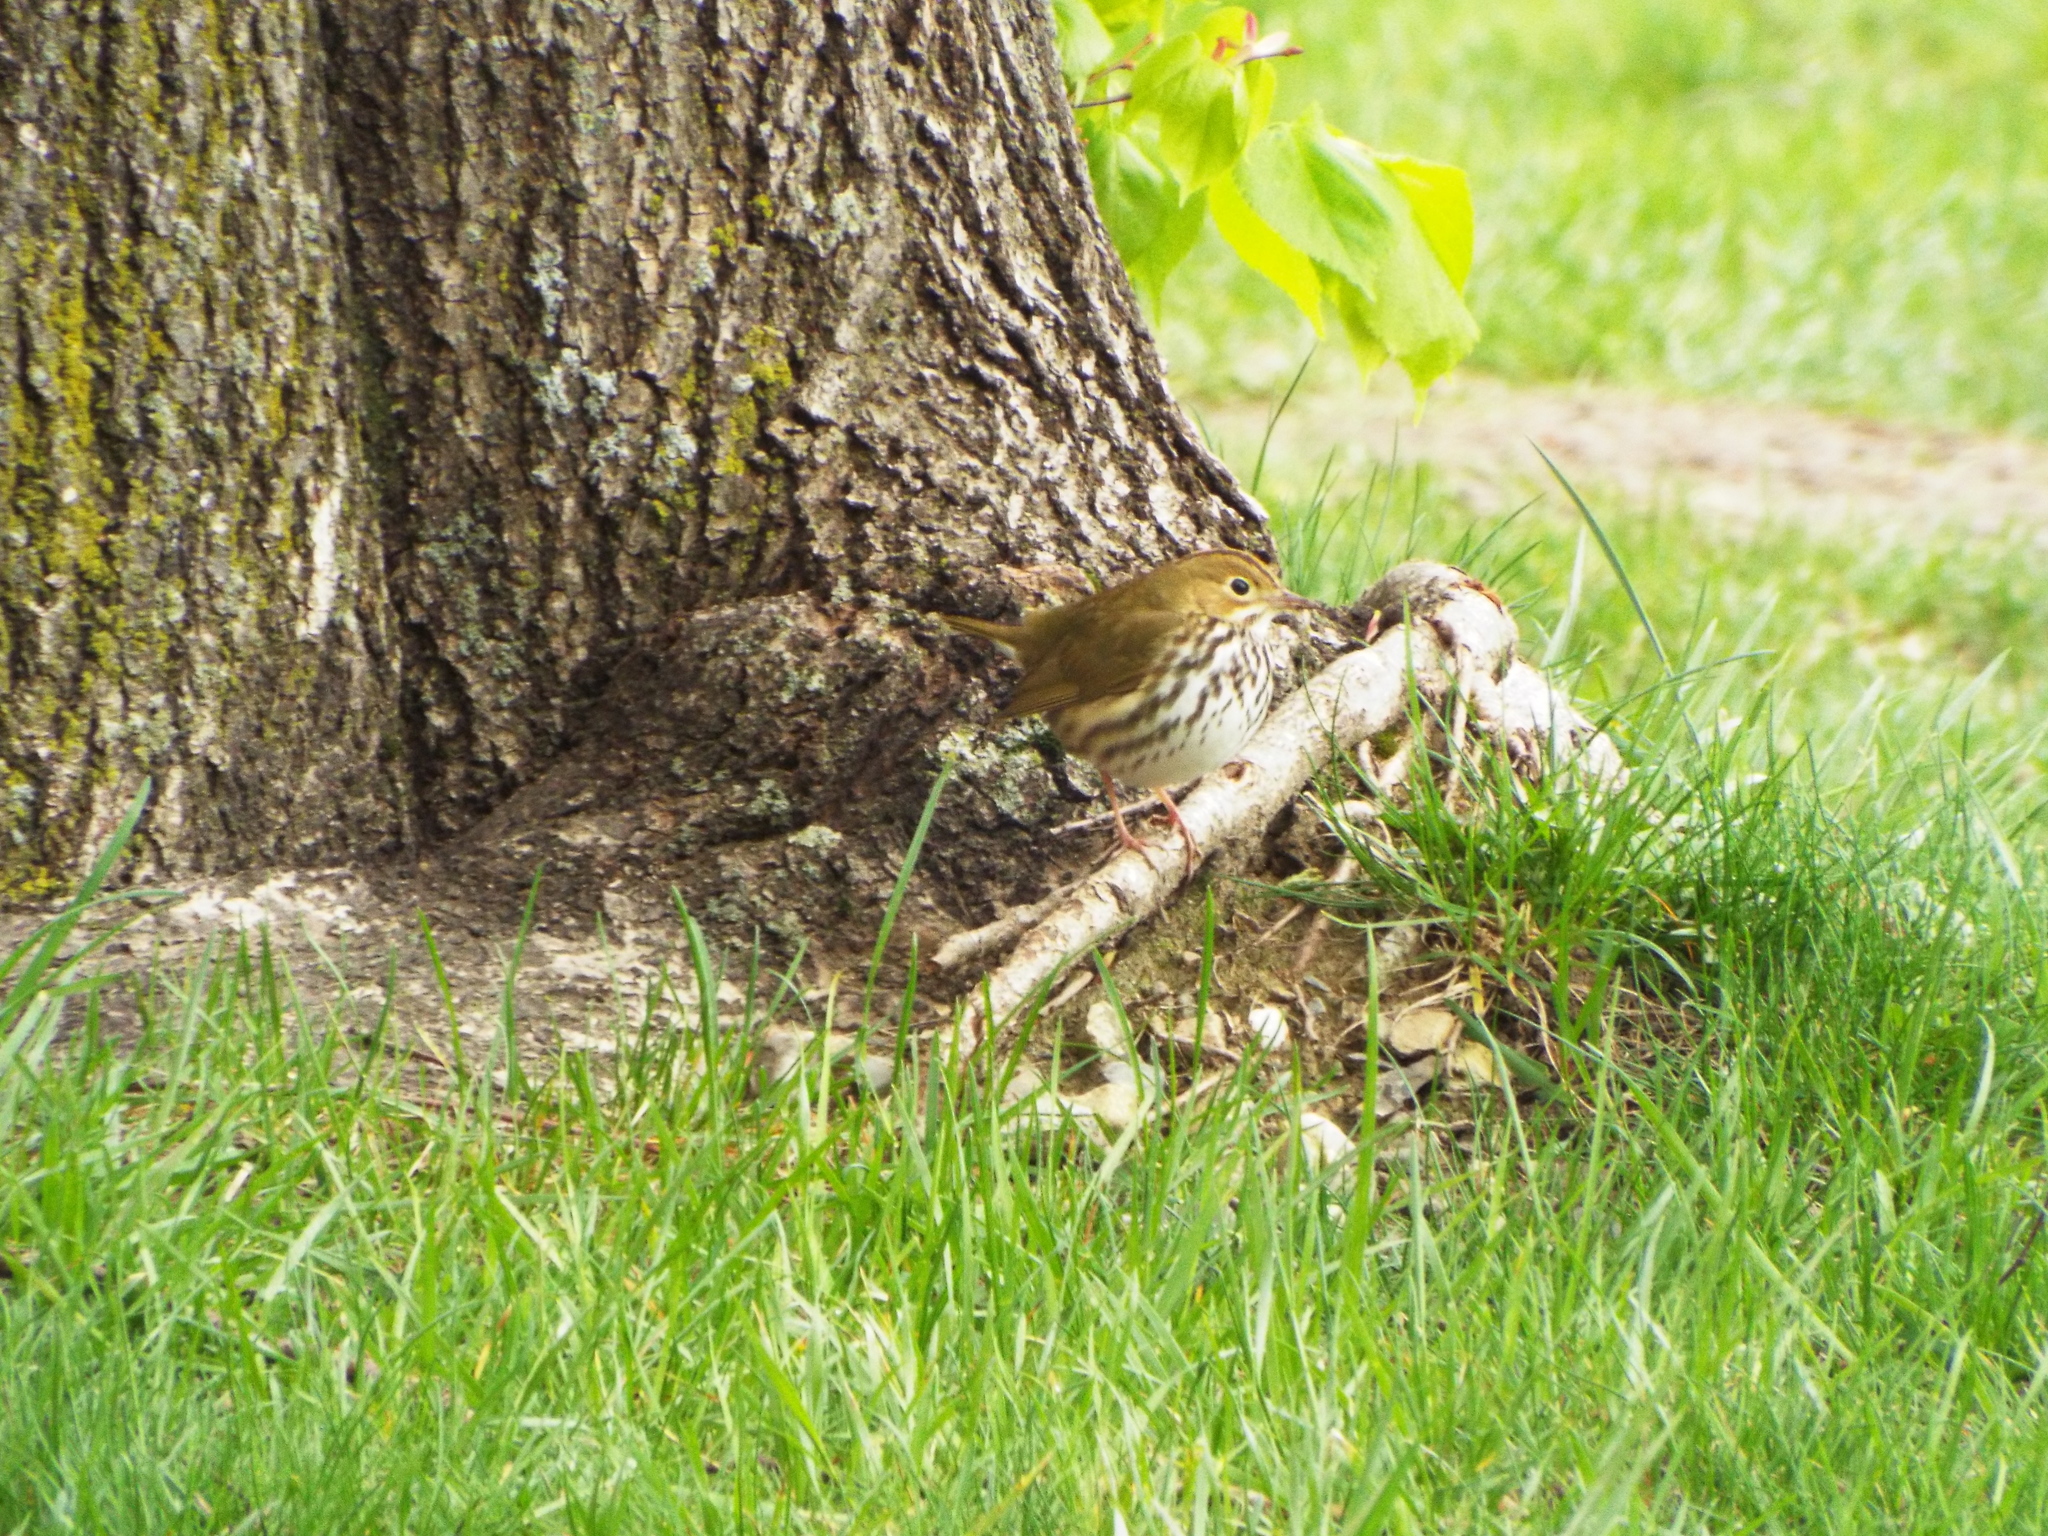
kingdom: Animalia
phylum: Chordata
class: Aves
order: Passeriformes
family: Parulidae
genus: Seiurus
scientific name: Seiurus aurocapilla
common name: Ovenbird
